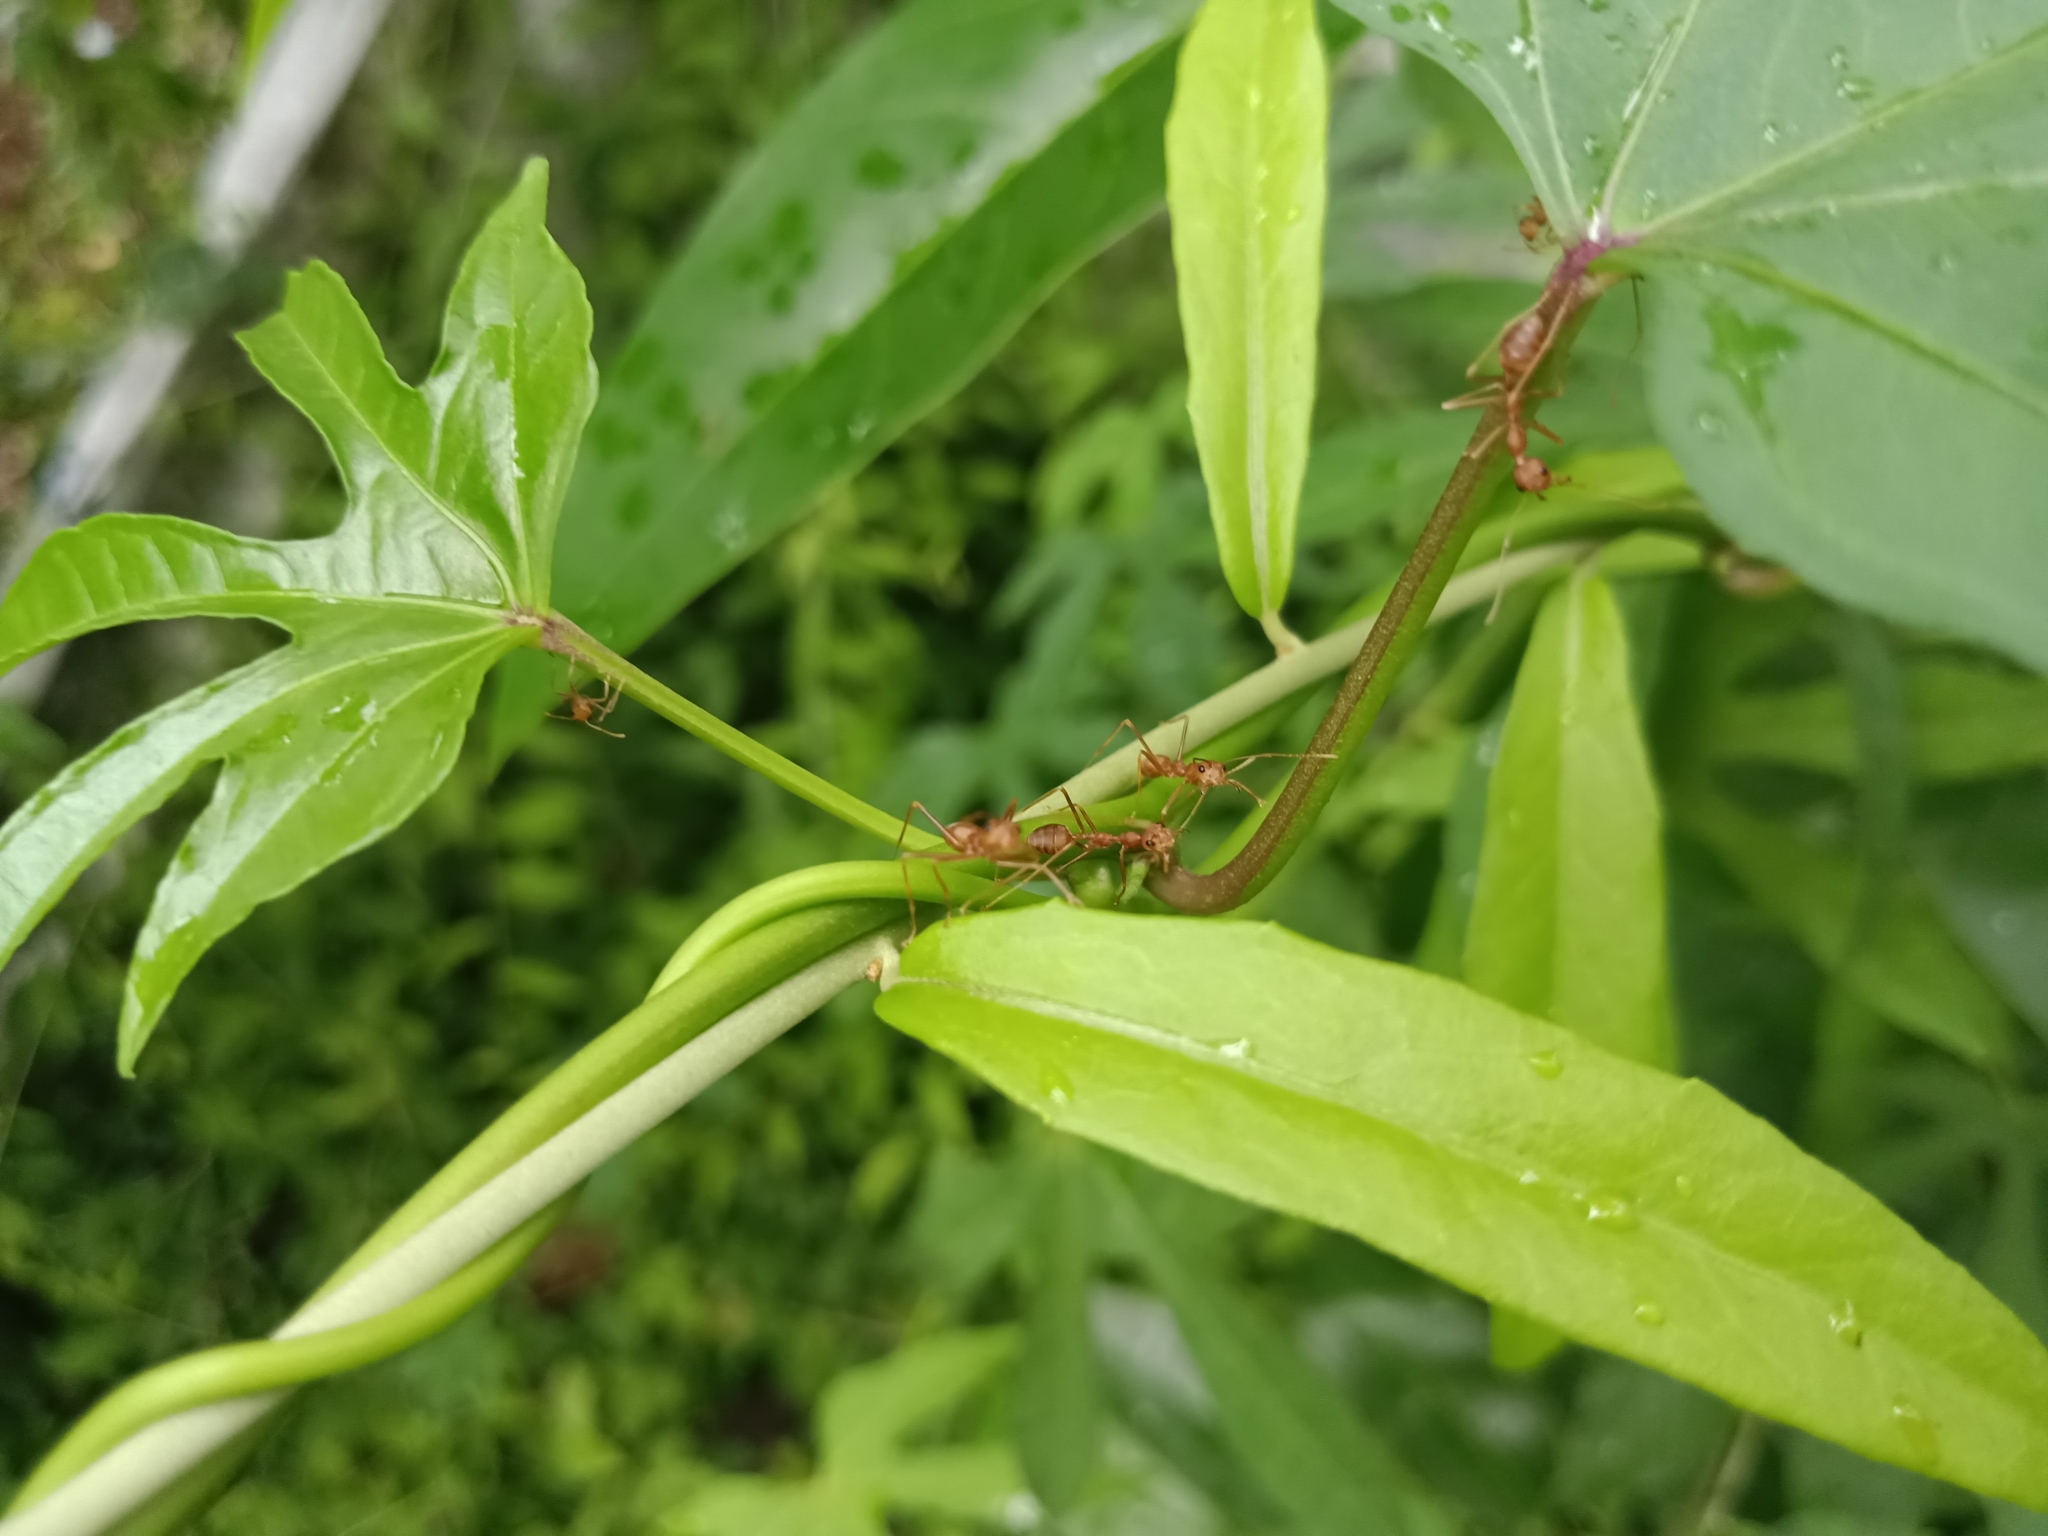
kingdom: Animalia
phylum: Arthropoda
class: Insecta
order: Hymenoptera
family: Formicidae
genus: Oecophylla
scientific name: Oecophylla smaragdina
